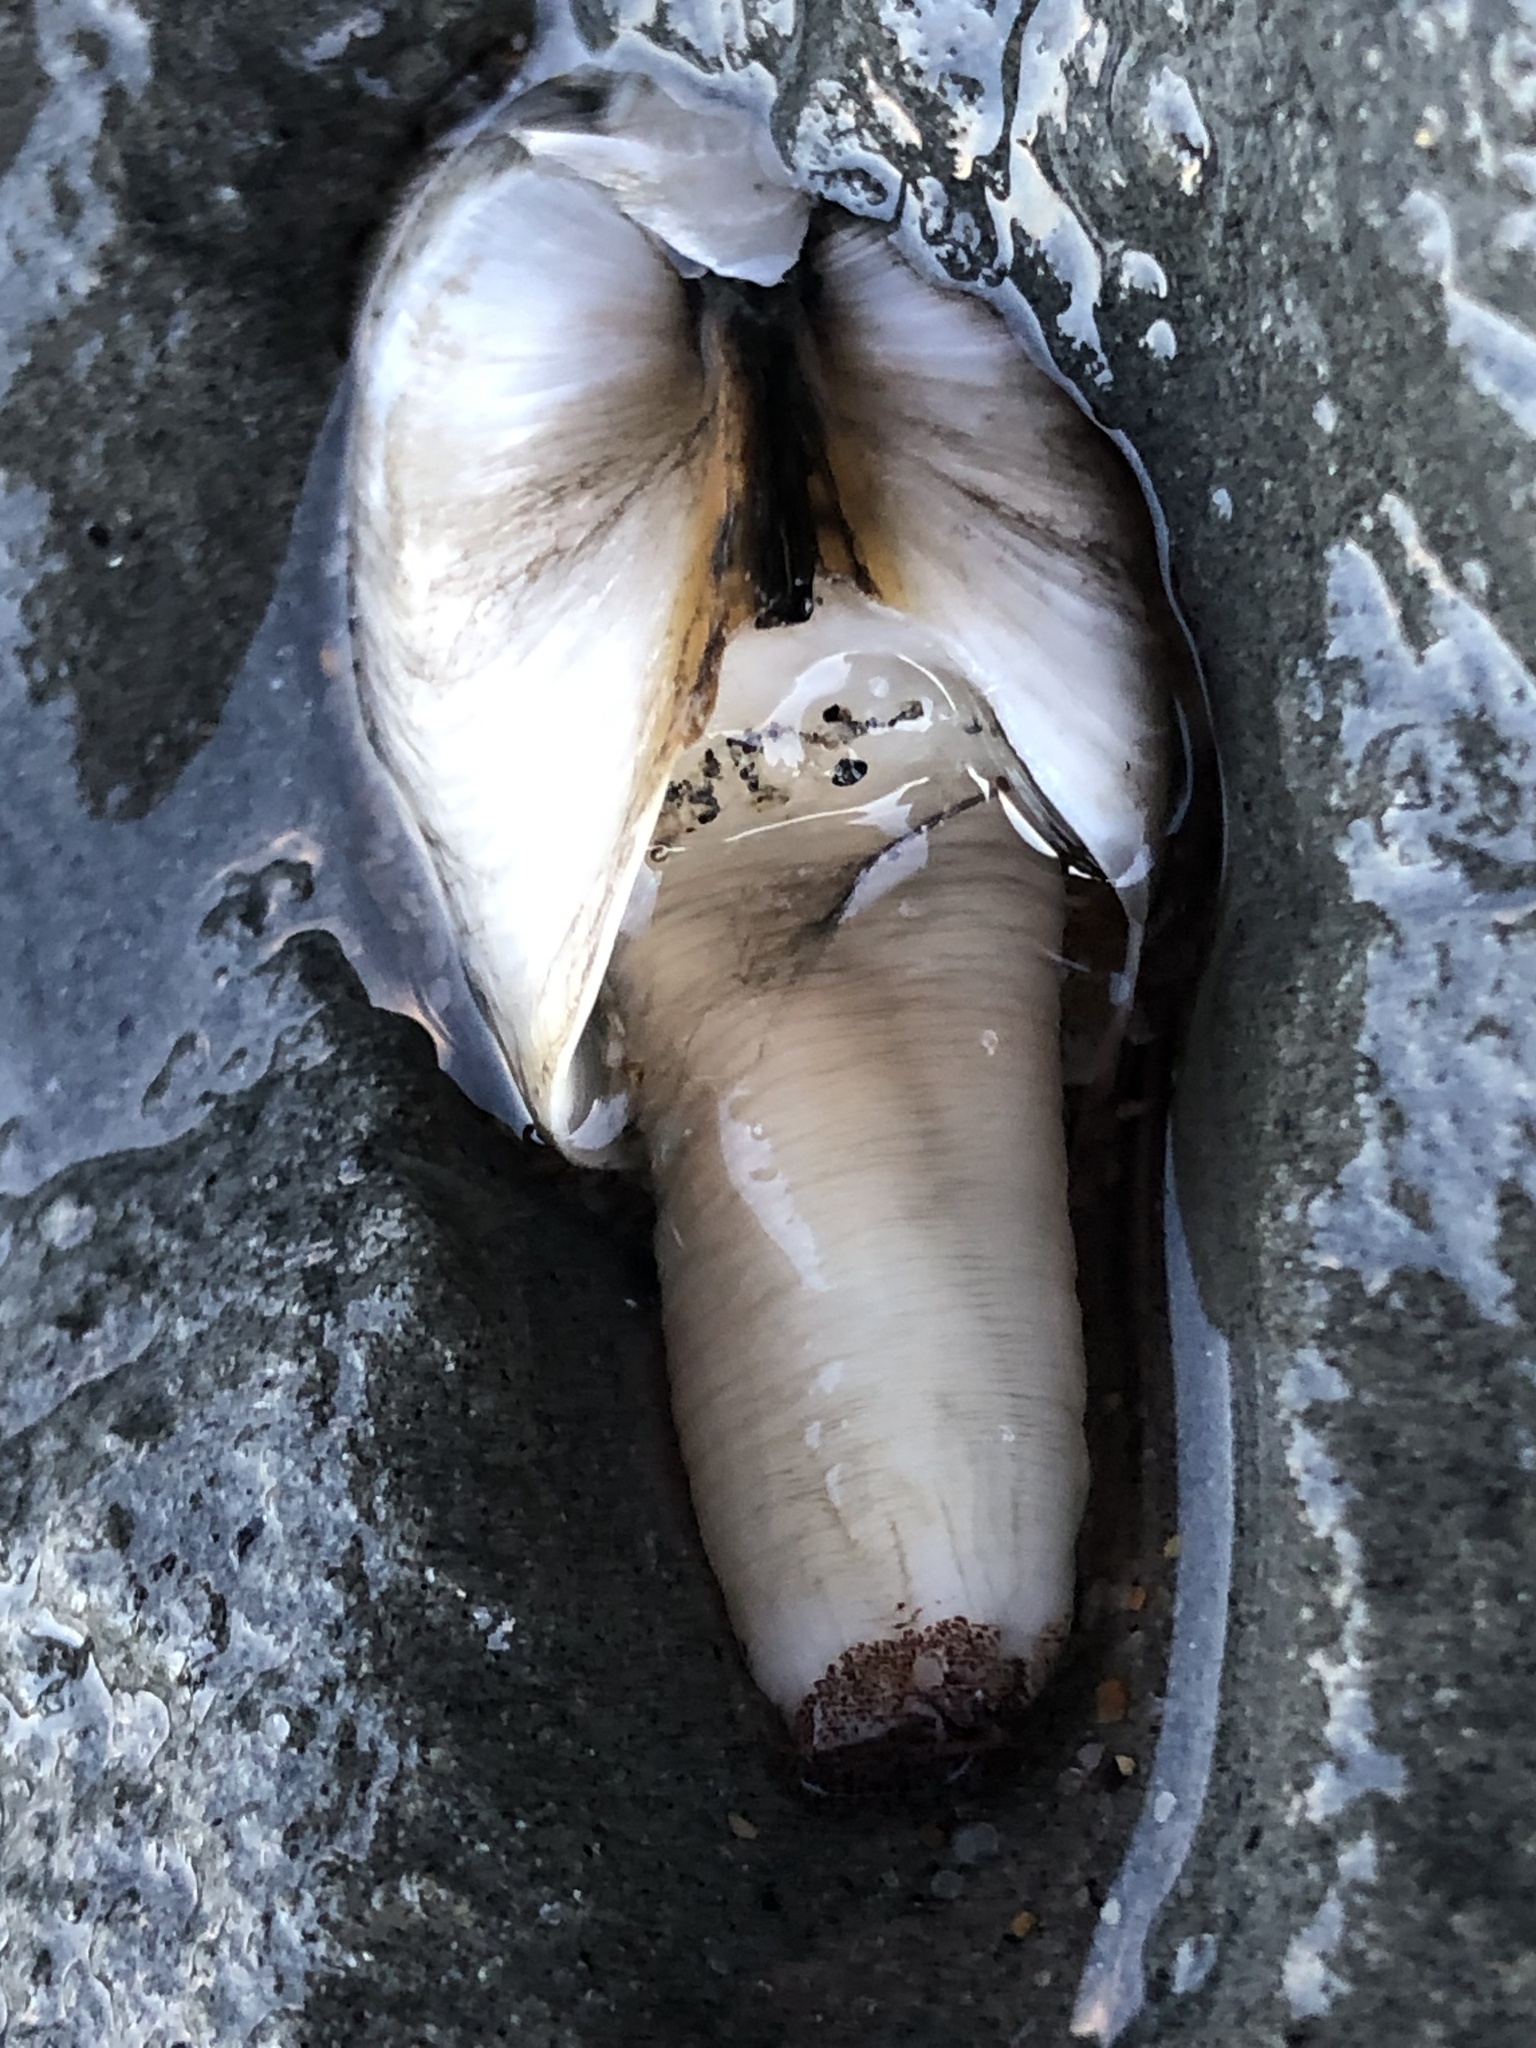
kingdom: Animalia
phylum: Mollusca
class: Bivalvia
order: Myida
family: Pholadidae
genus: Penitella
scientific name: Penitella penita
